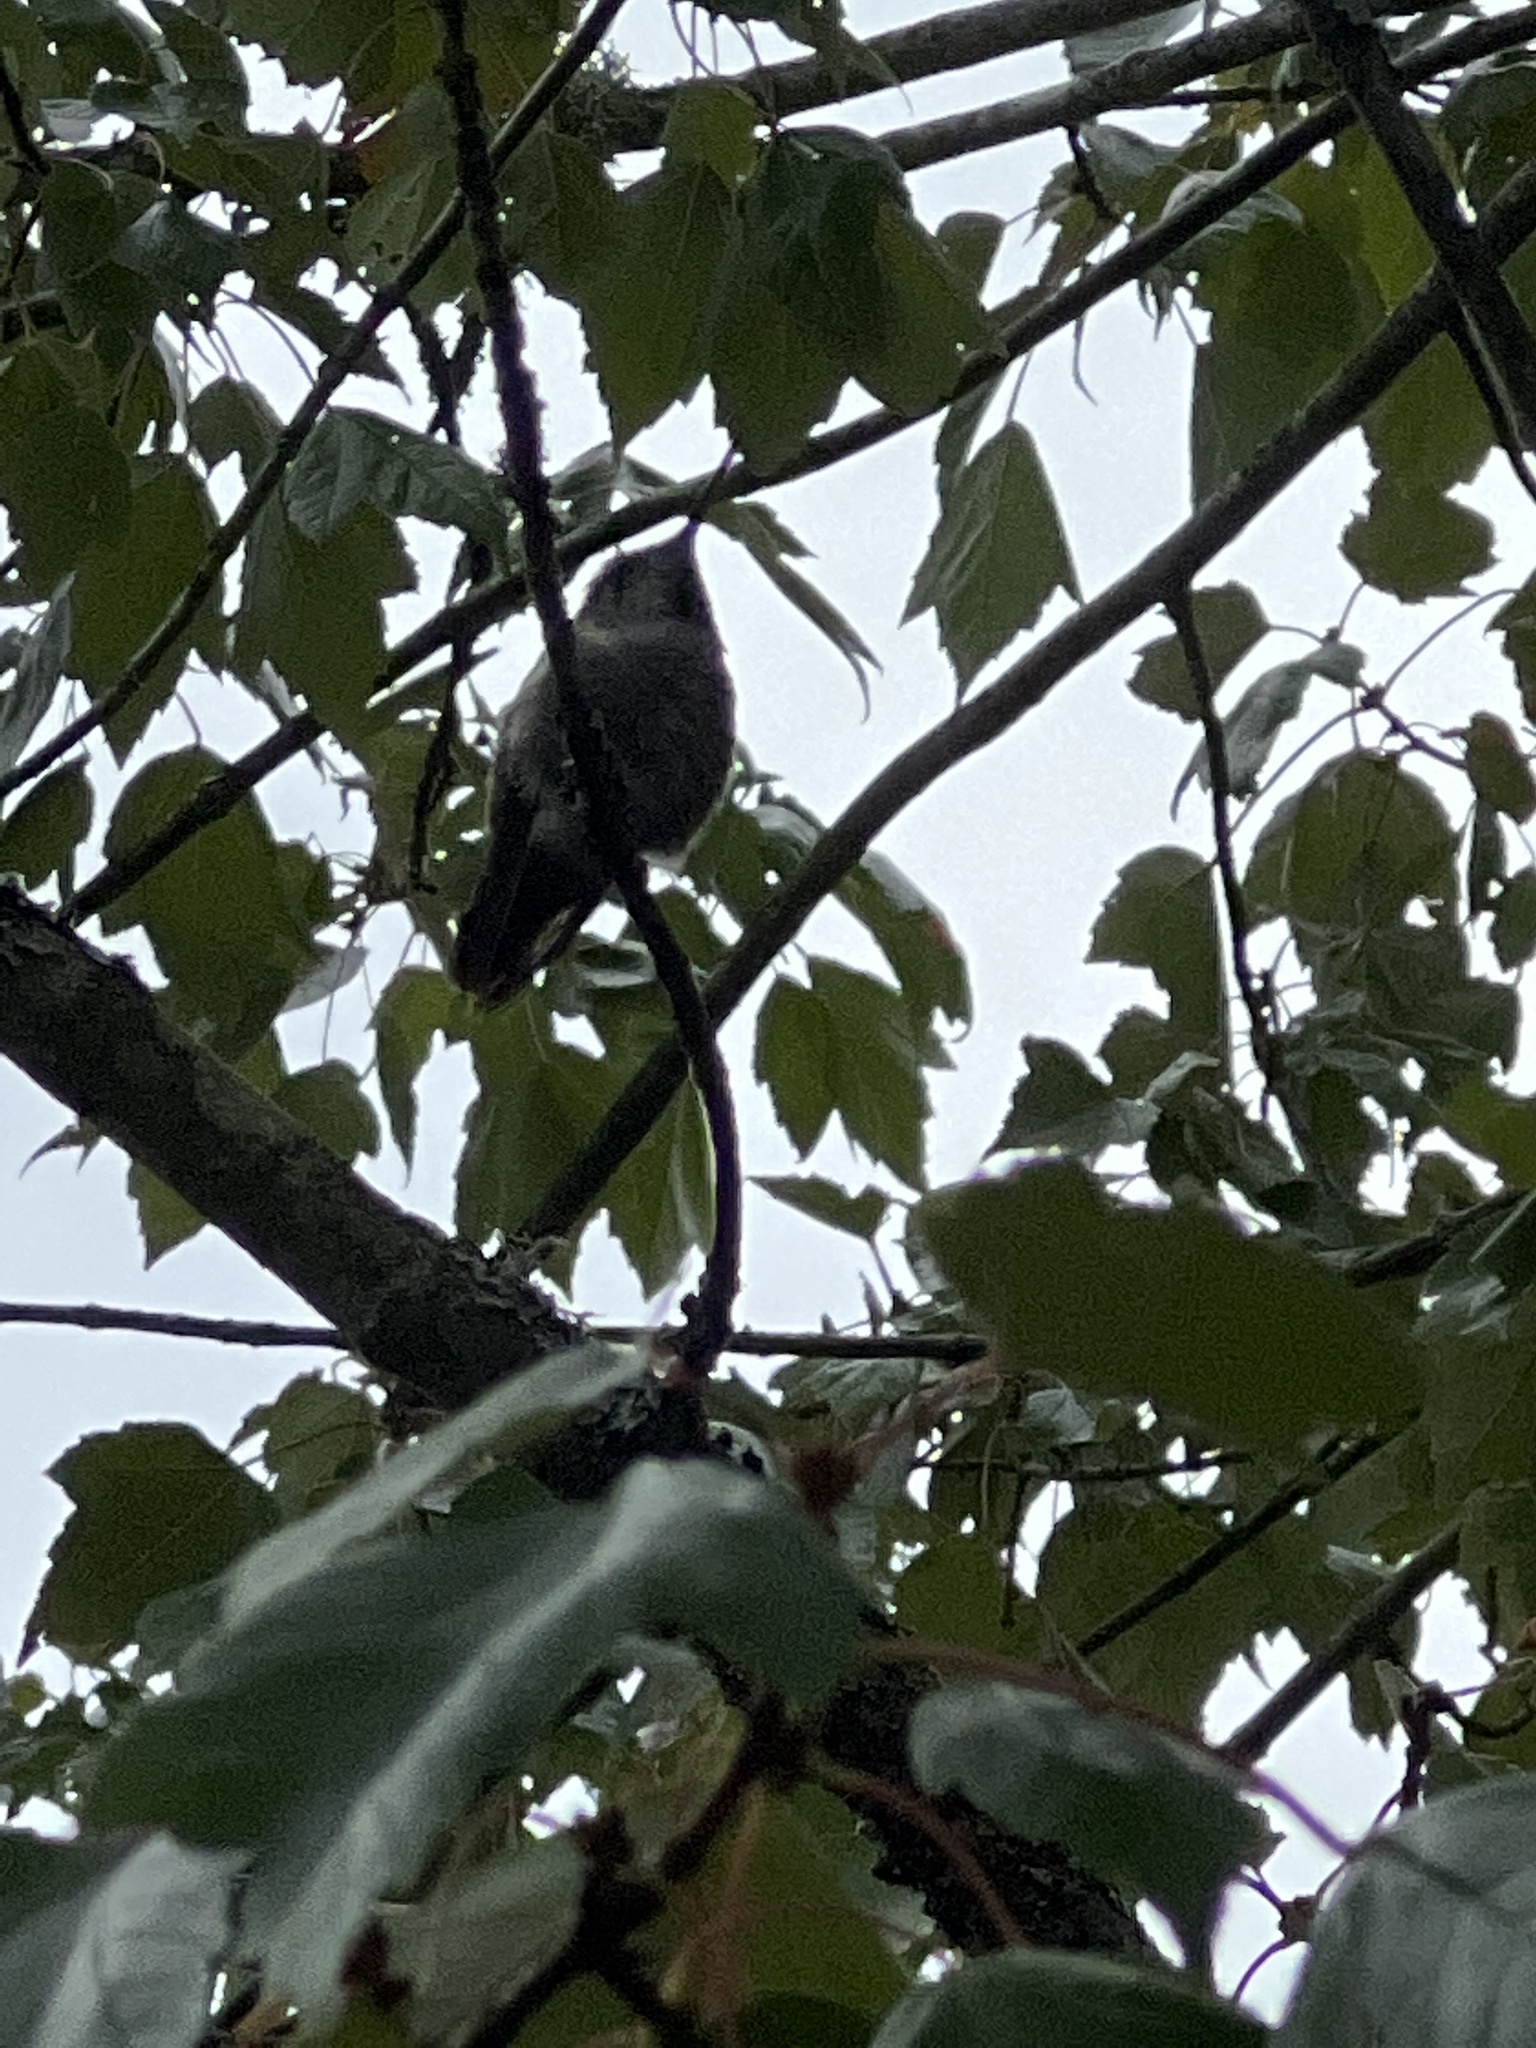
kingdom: Animalia
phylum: Chordata
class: Aves
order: Apodiformes
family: Trochilidae
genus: Calypte
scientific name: Calypte anna
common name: Anna's hummingbird
